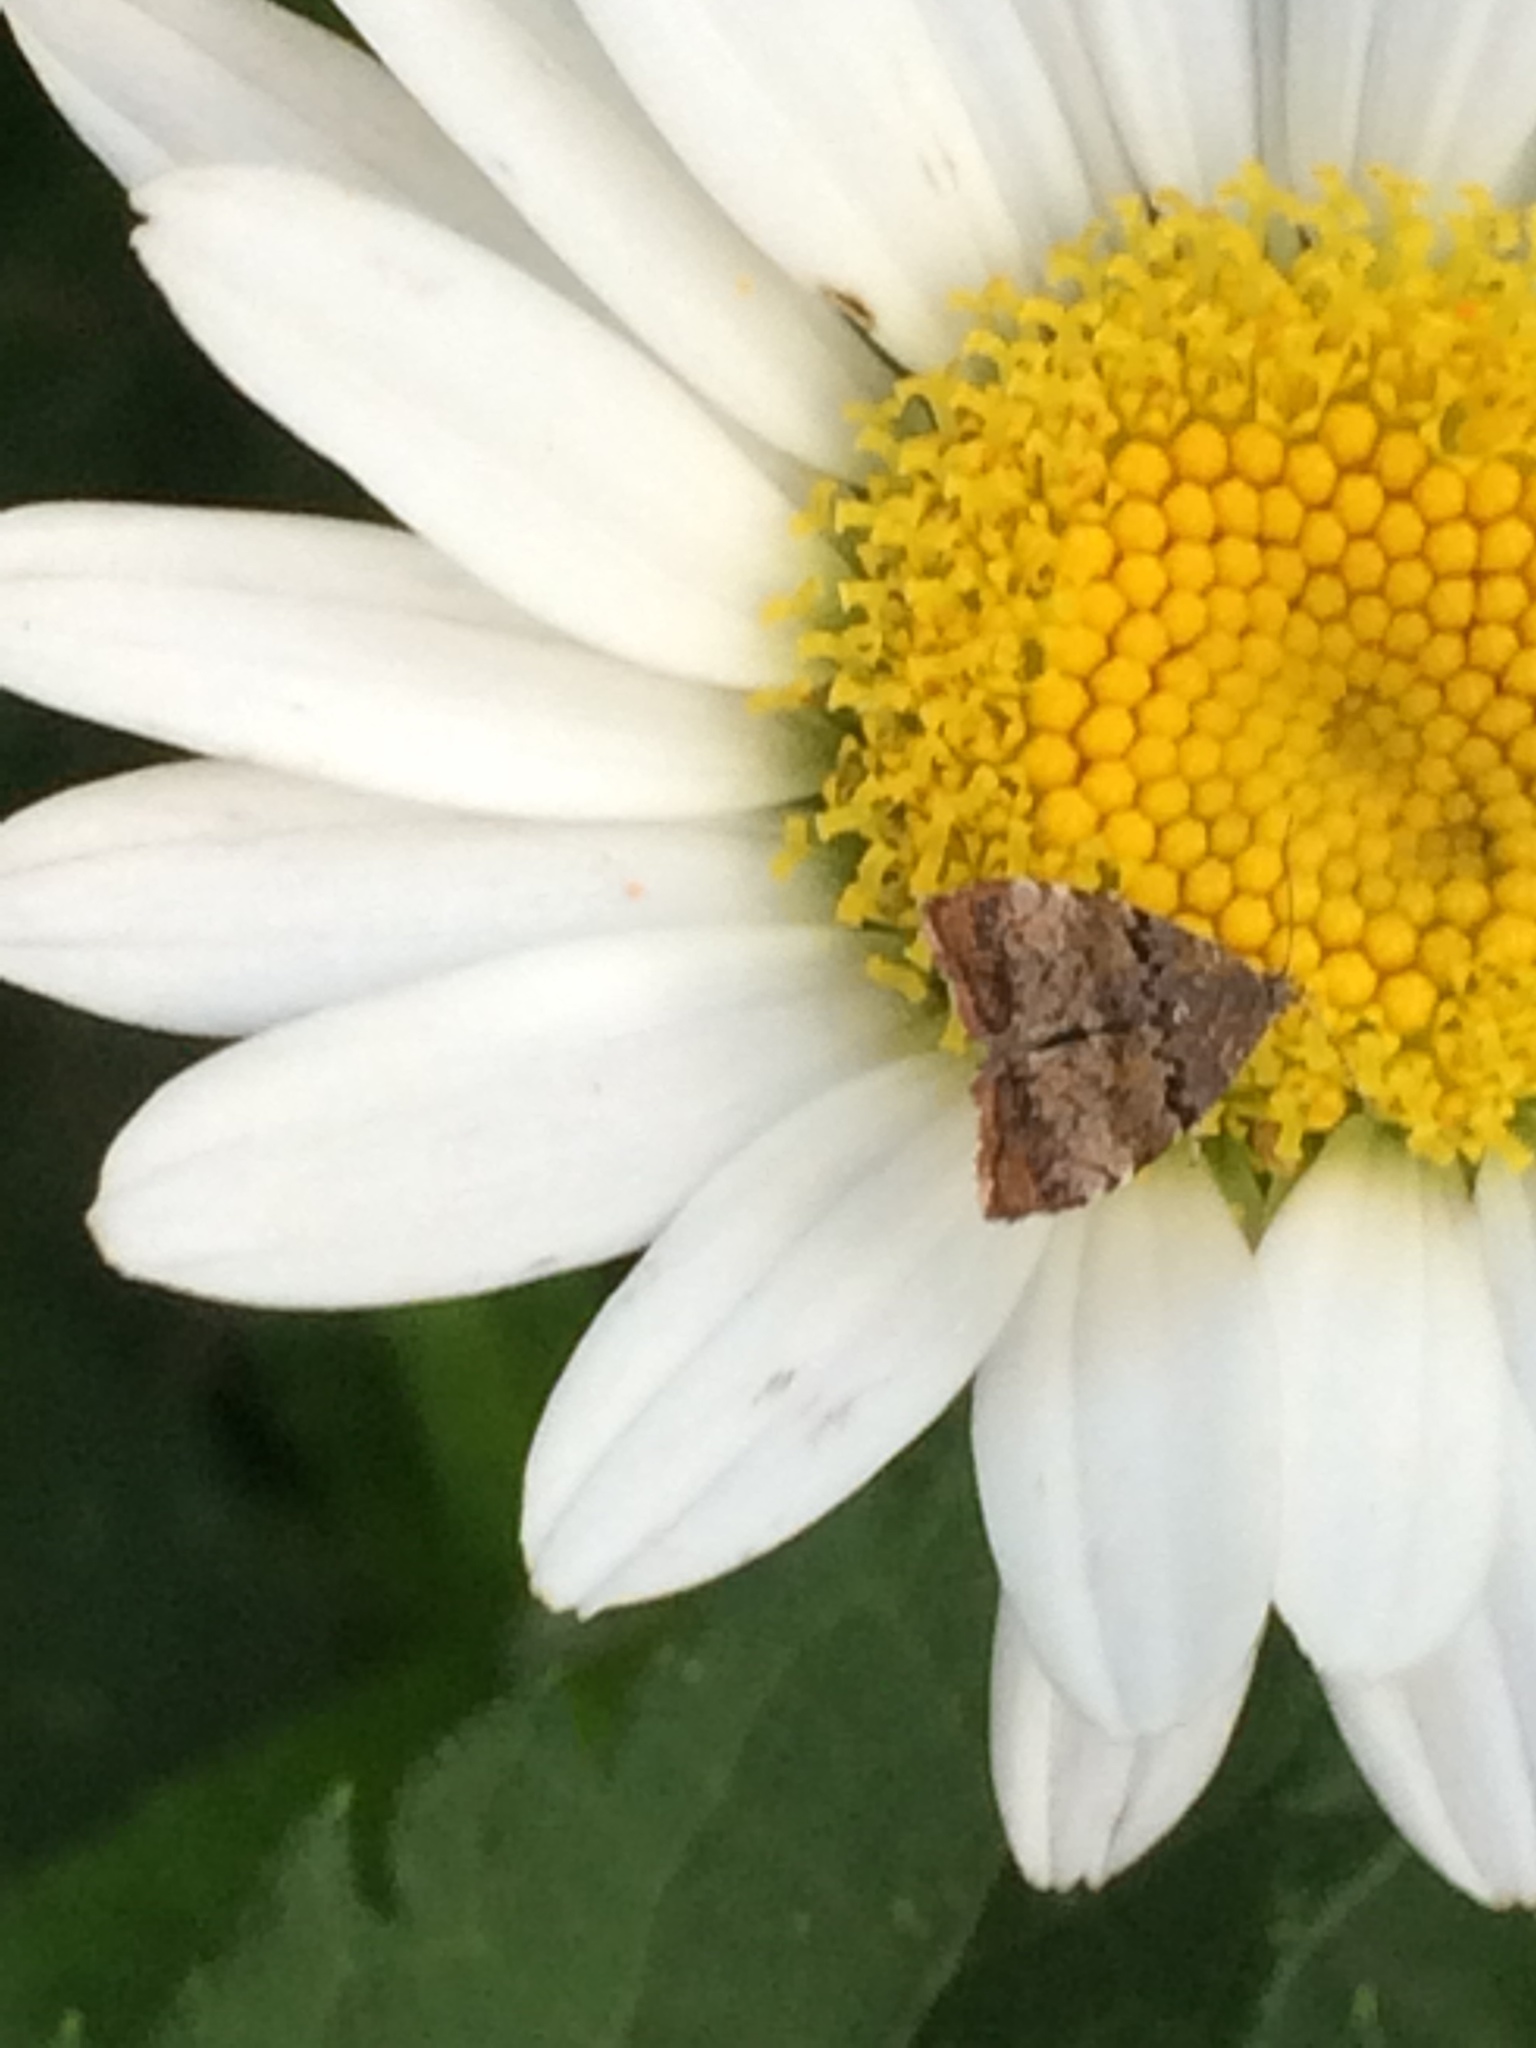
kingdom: Animalia
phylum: Arthropoda
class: Insecta
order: Lepidoptera
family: Choreutidae
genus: Choreutis
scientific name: Choreutis pariana
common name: Apple leaf skeletoniser
